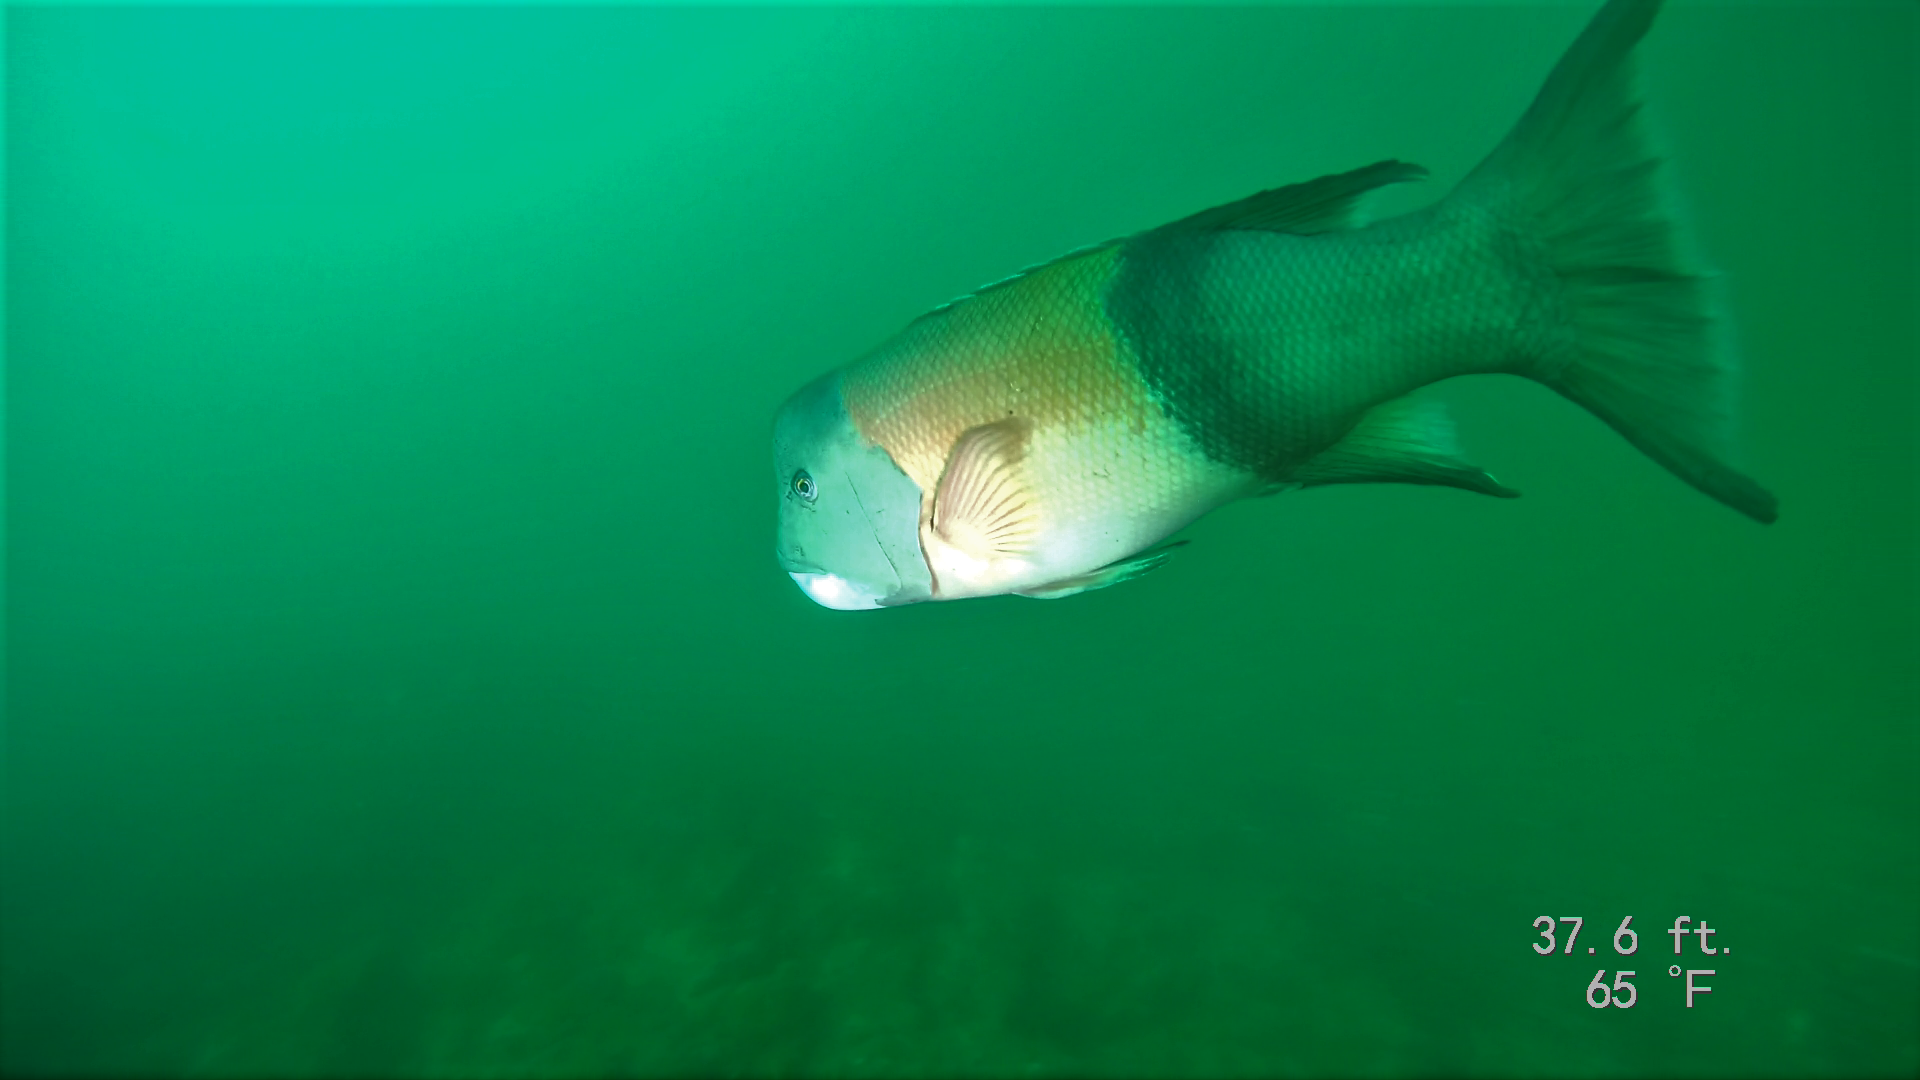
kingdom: Animalia
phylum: Chordata
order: Perciformes
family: Labridae
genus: Semicossyphus
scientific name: Semicossyphus pulcher
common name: California sheephead
